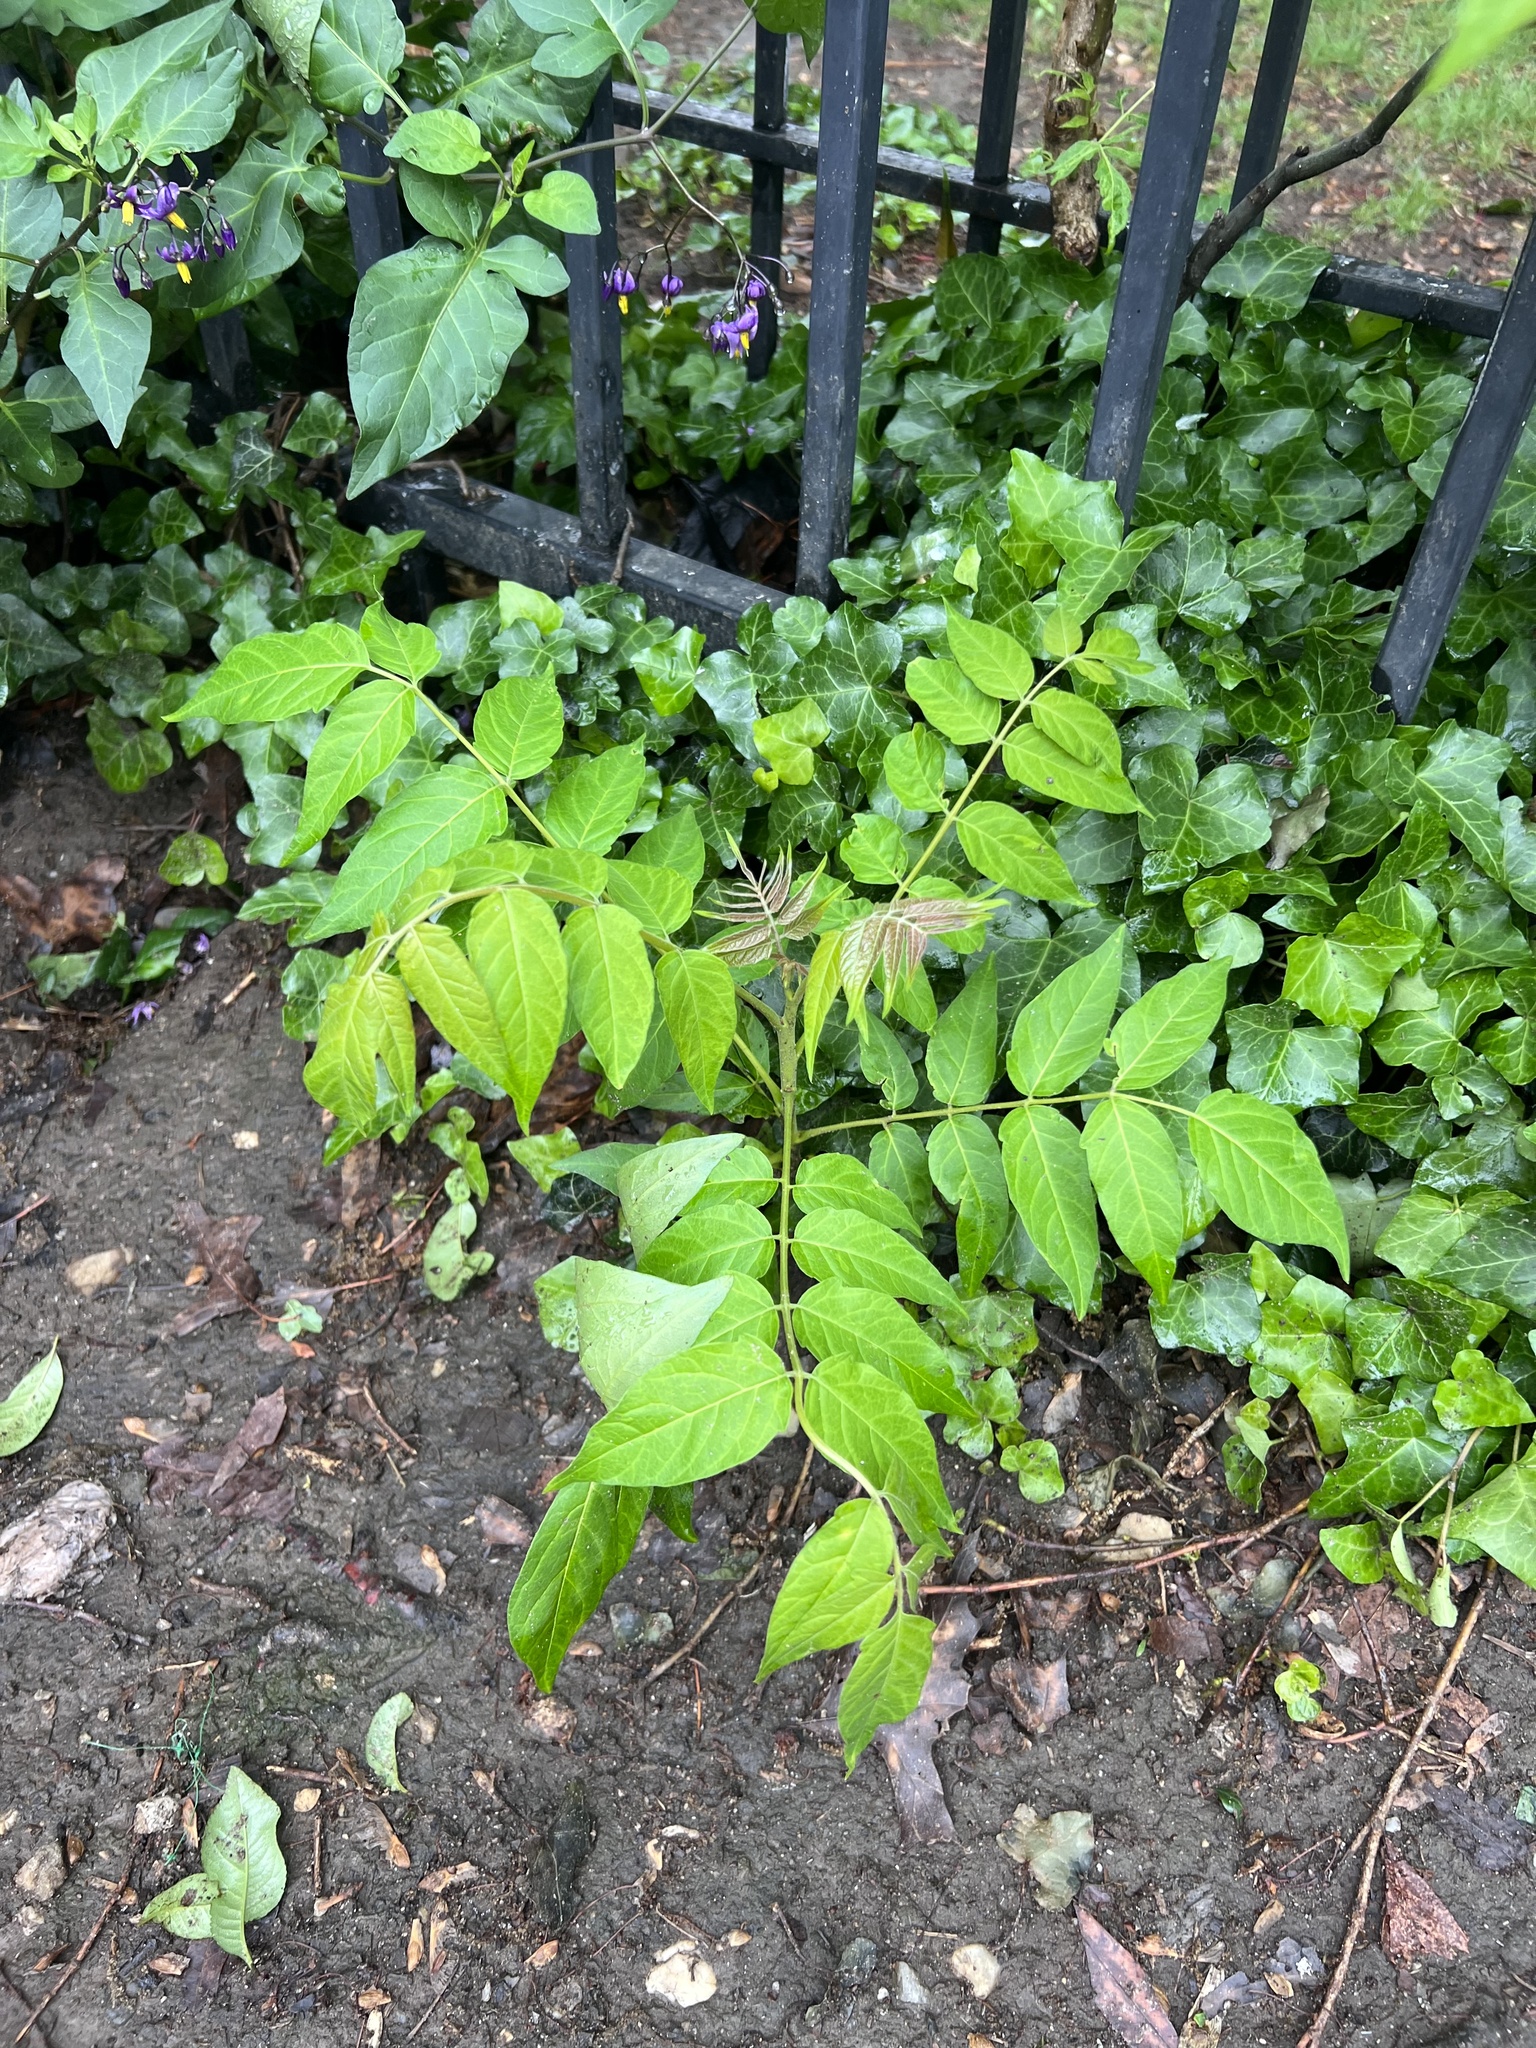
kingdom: Plantae
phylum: Tracheophyta
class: Magnoliopsida
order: Sapindales
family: Simaroubaceae
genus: Ailanthus
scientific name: Ailanthus altissima
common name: Tree-of-heaven
